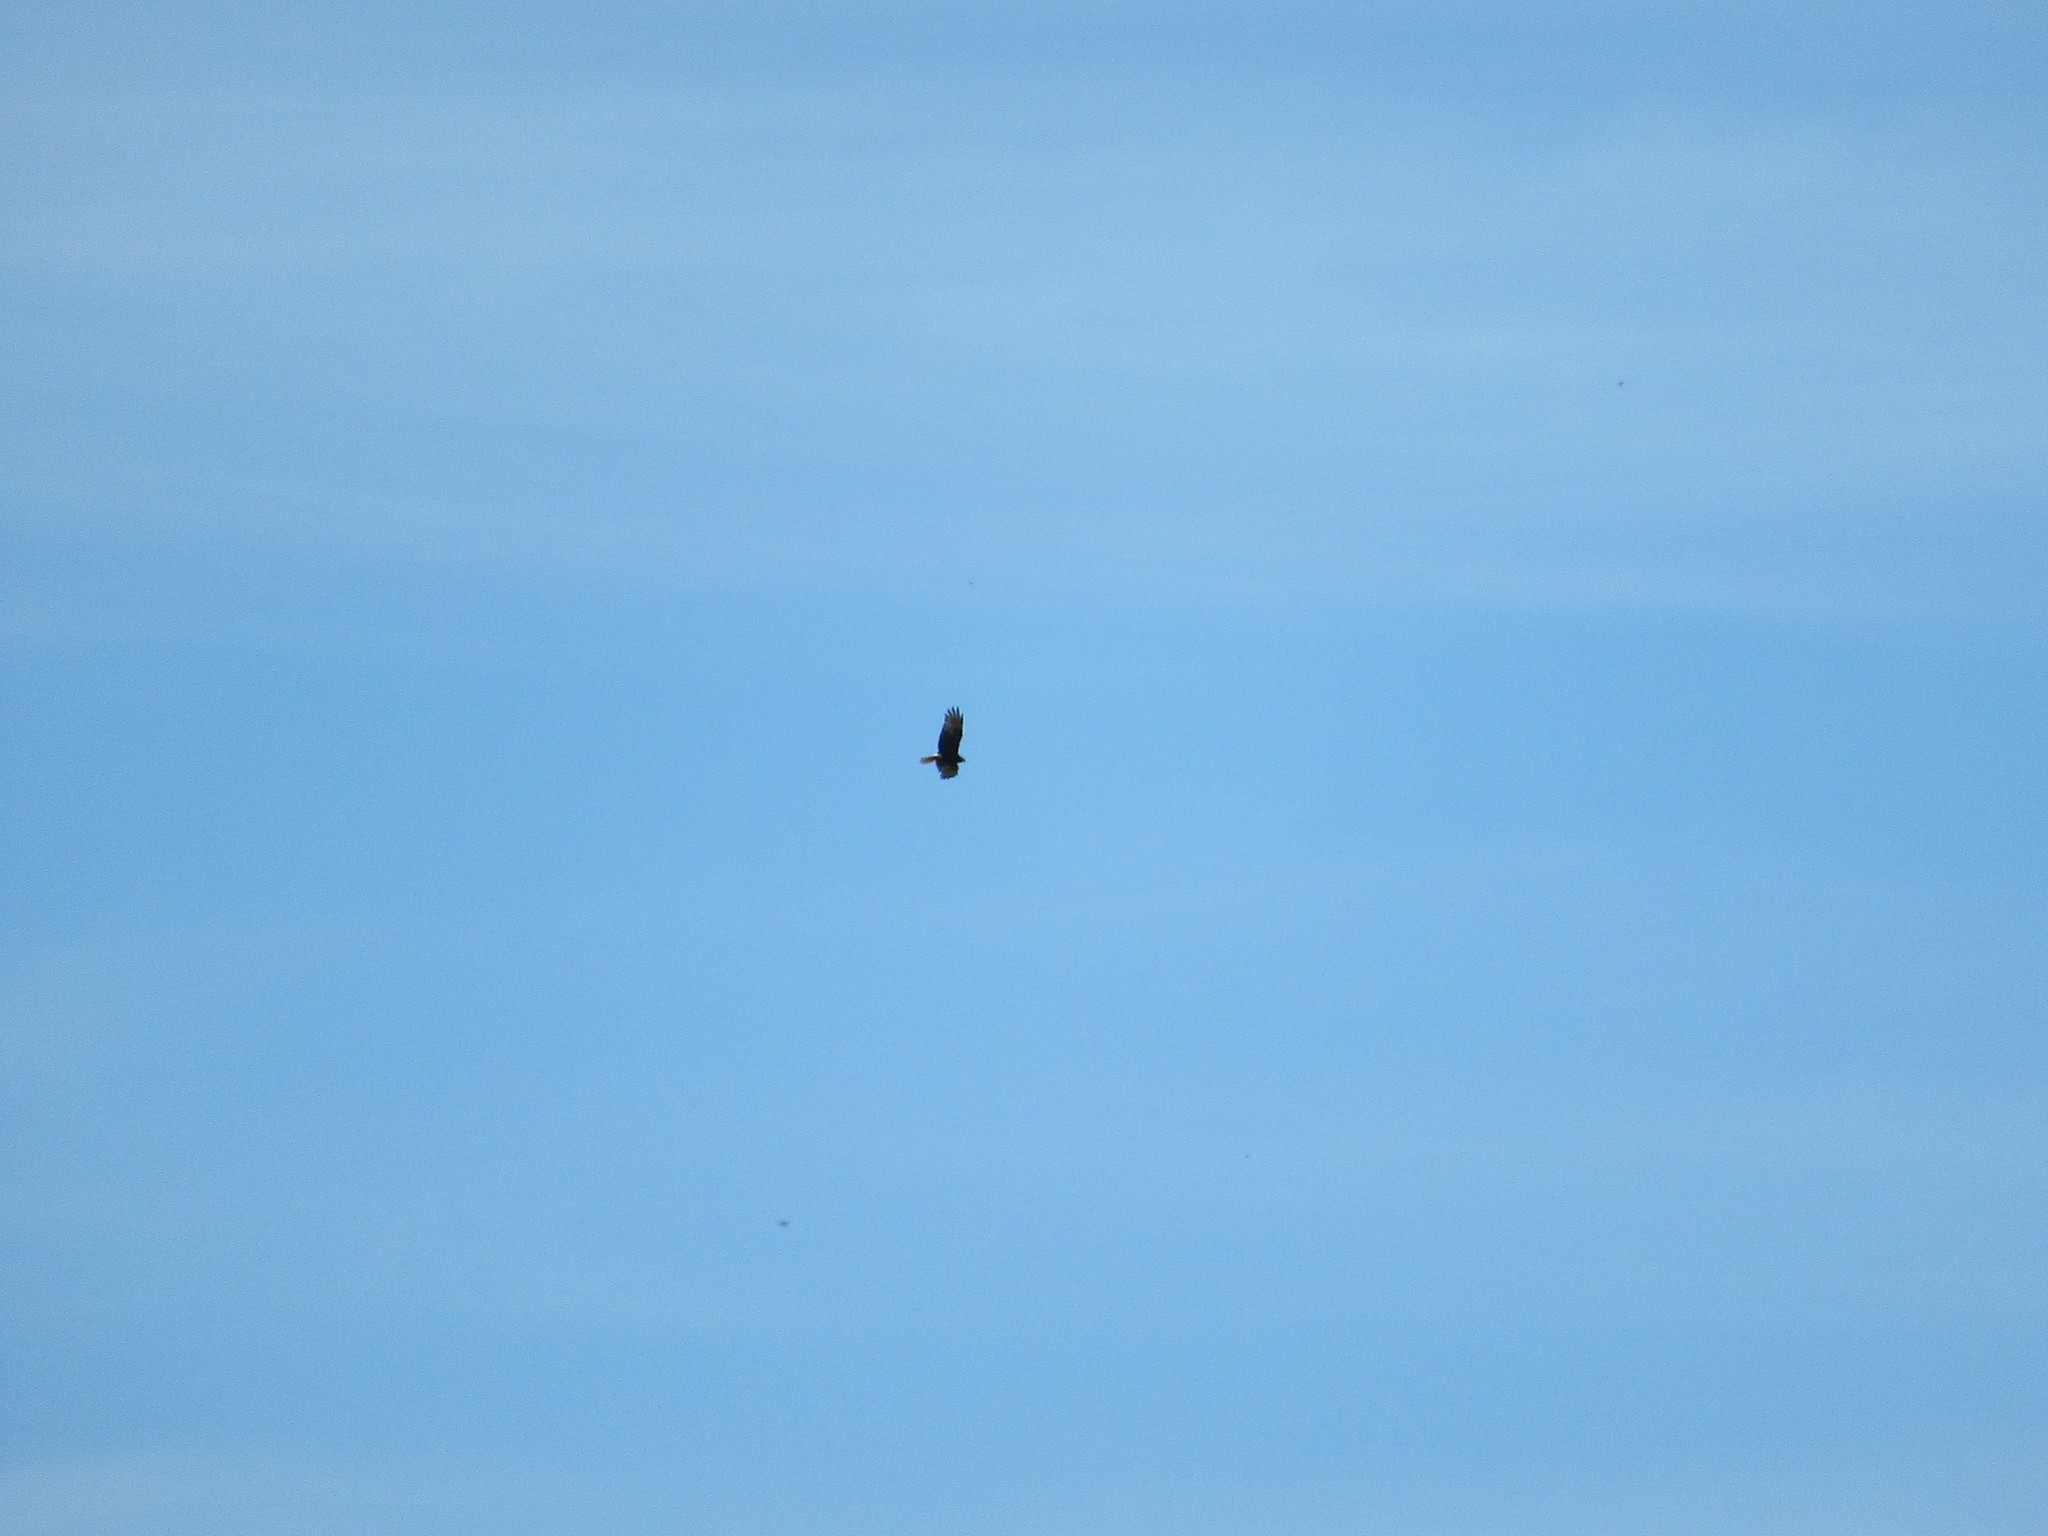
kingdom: Animalia
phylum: Chordata
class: Aves
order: Accipitriformes
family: Accipitridae
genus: Circus
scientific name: Circus approximans
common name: Swamp harrier
